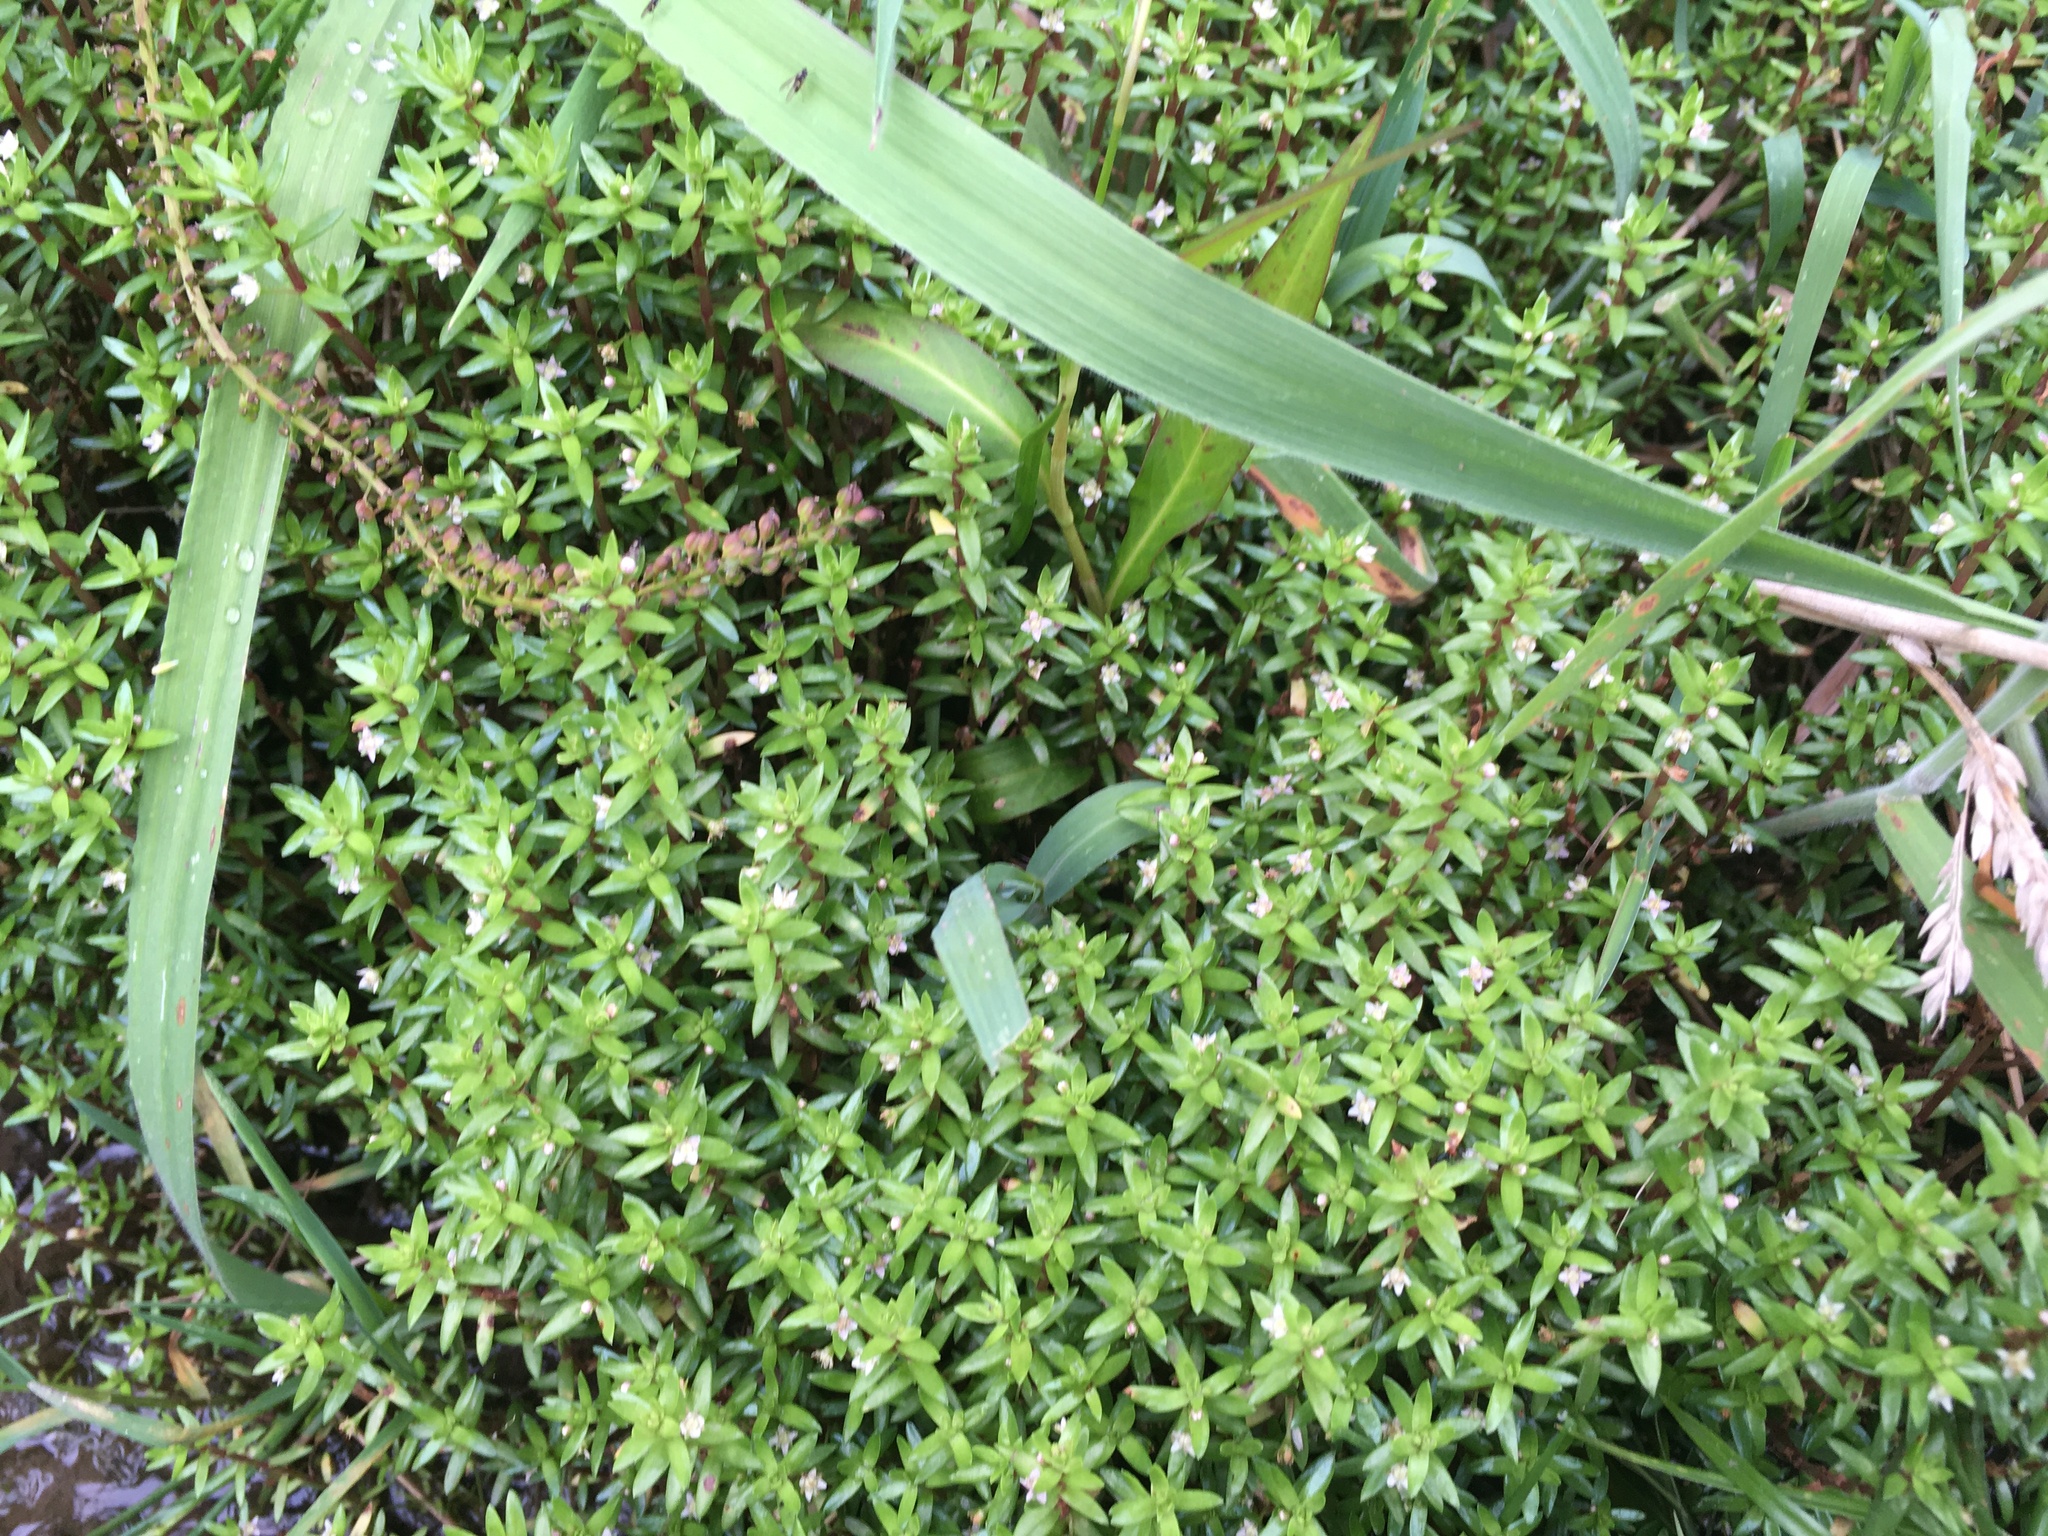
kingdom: Plantae
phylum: Tracheophyta
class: Magnoliopsida
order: Saxifragales
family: Crassulaceae
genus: Crassula
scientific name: Crassula helmsii
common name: New zealand pigmyweed
